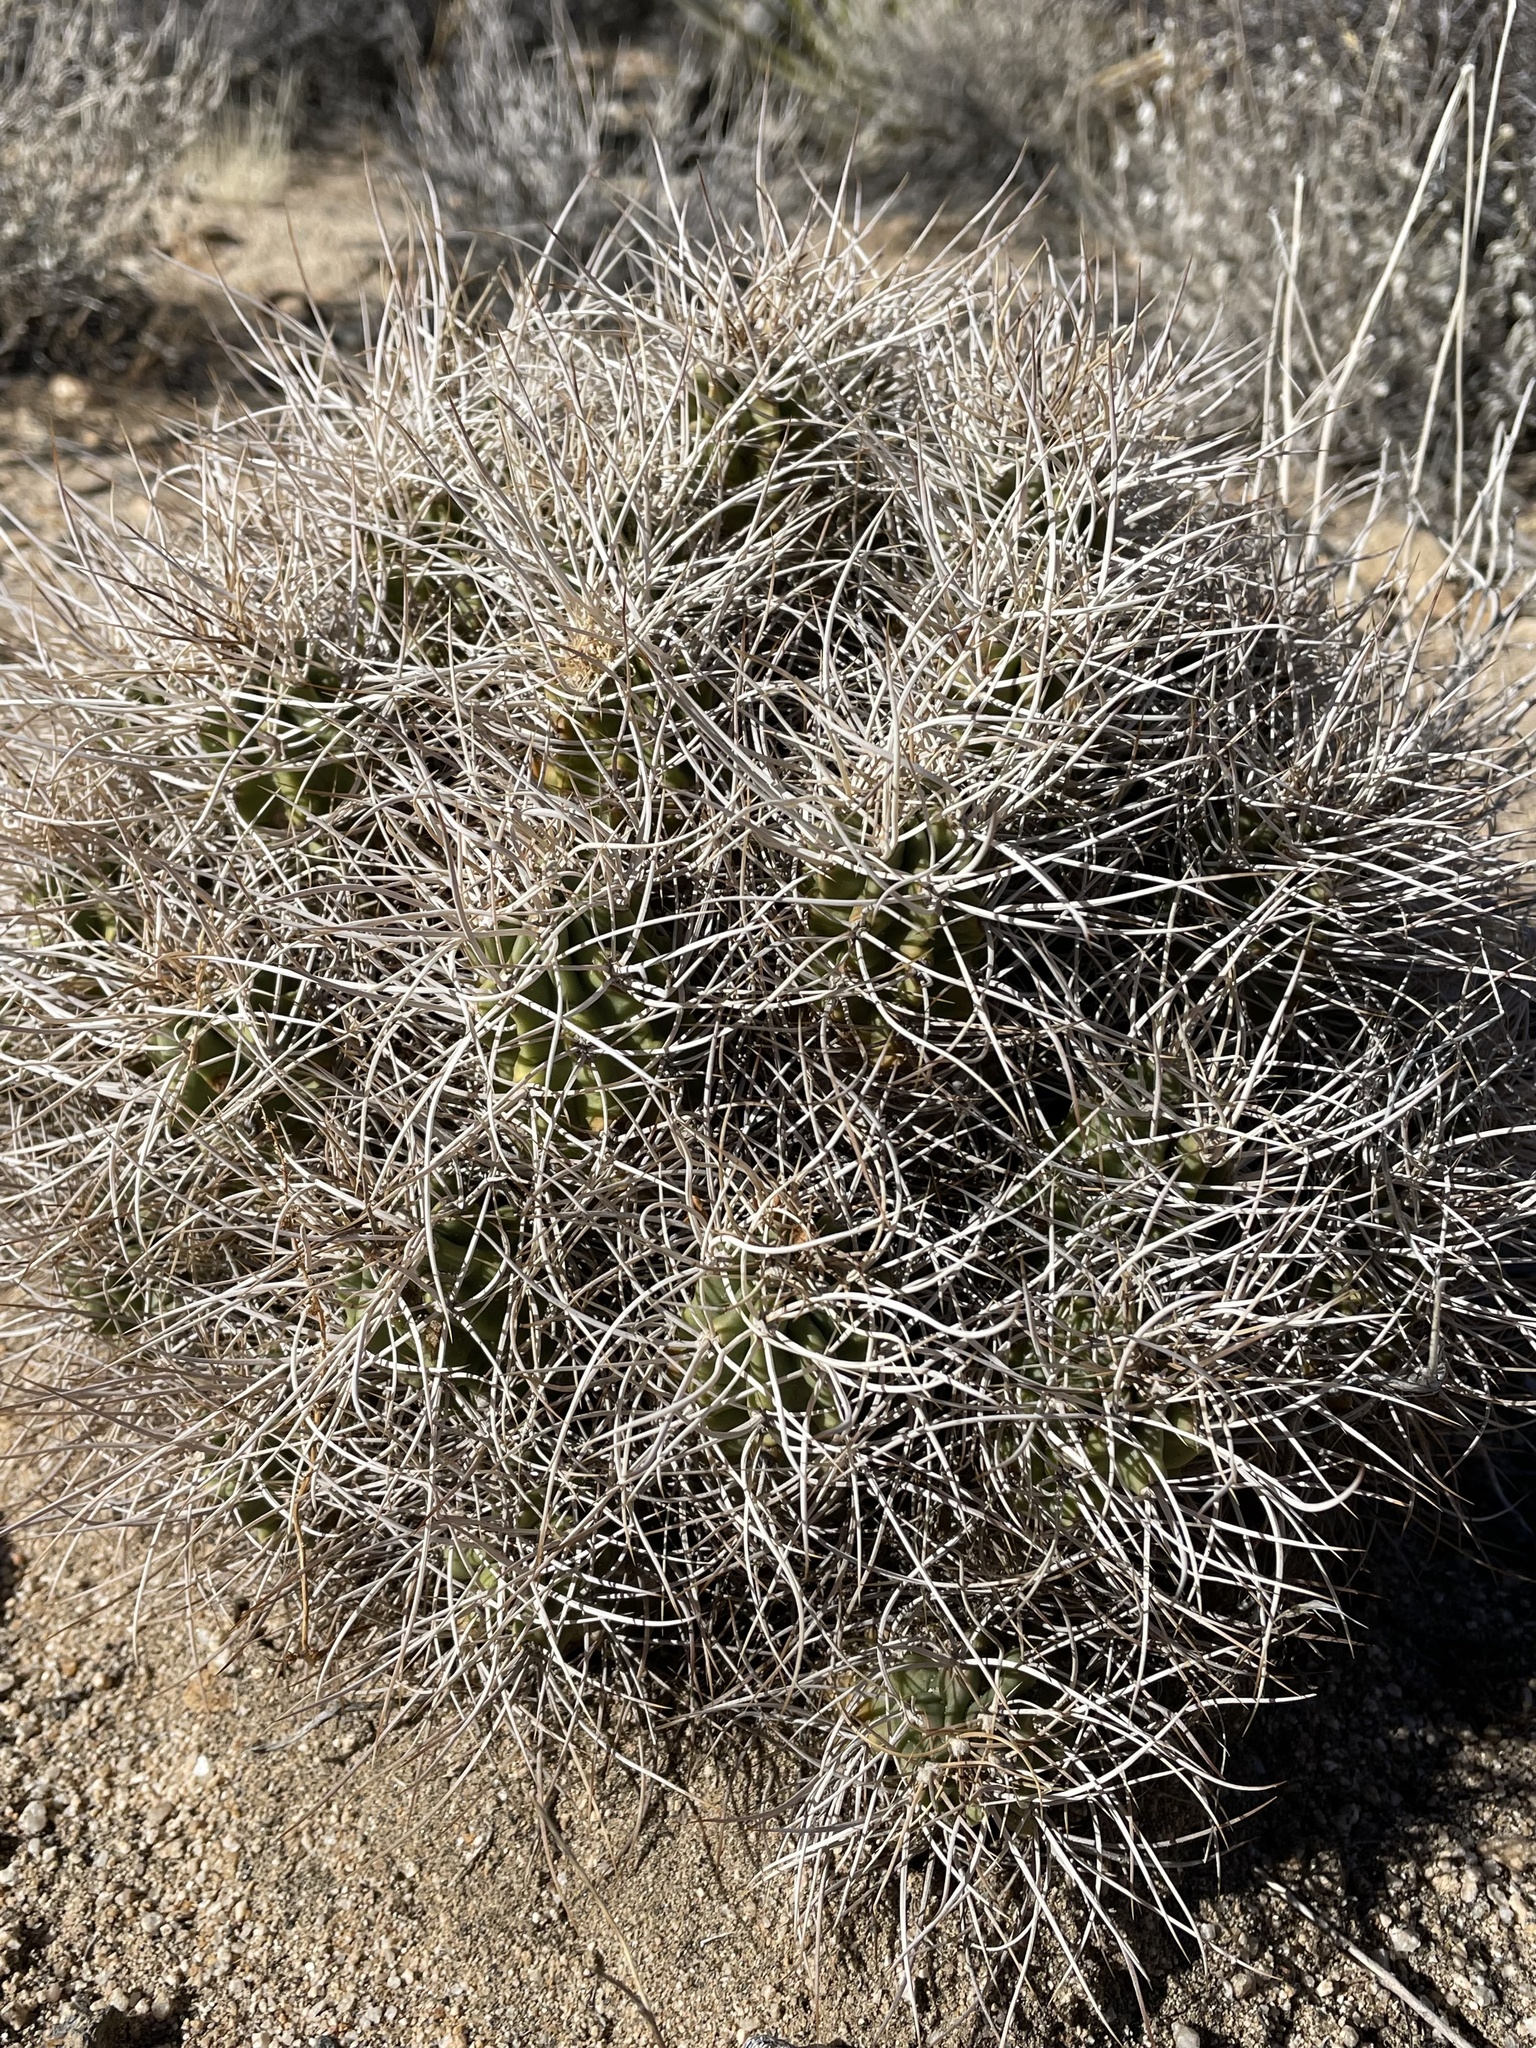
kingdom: Plantae
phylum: Tracheophyta
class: Magnoliopsida
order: Caryophyllales
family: Cactaceae
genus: Echinocereus
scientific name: Echinocereus triglochidiatus
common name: Claretcup hedgehog
